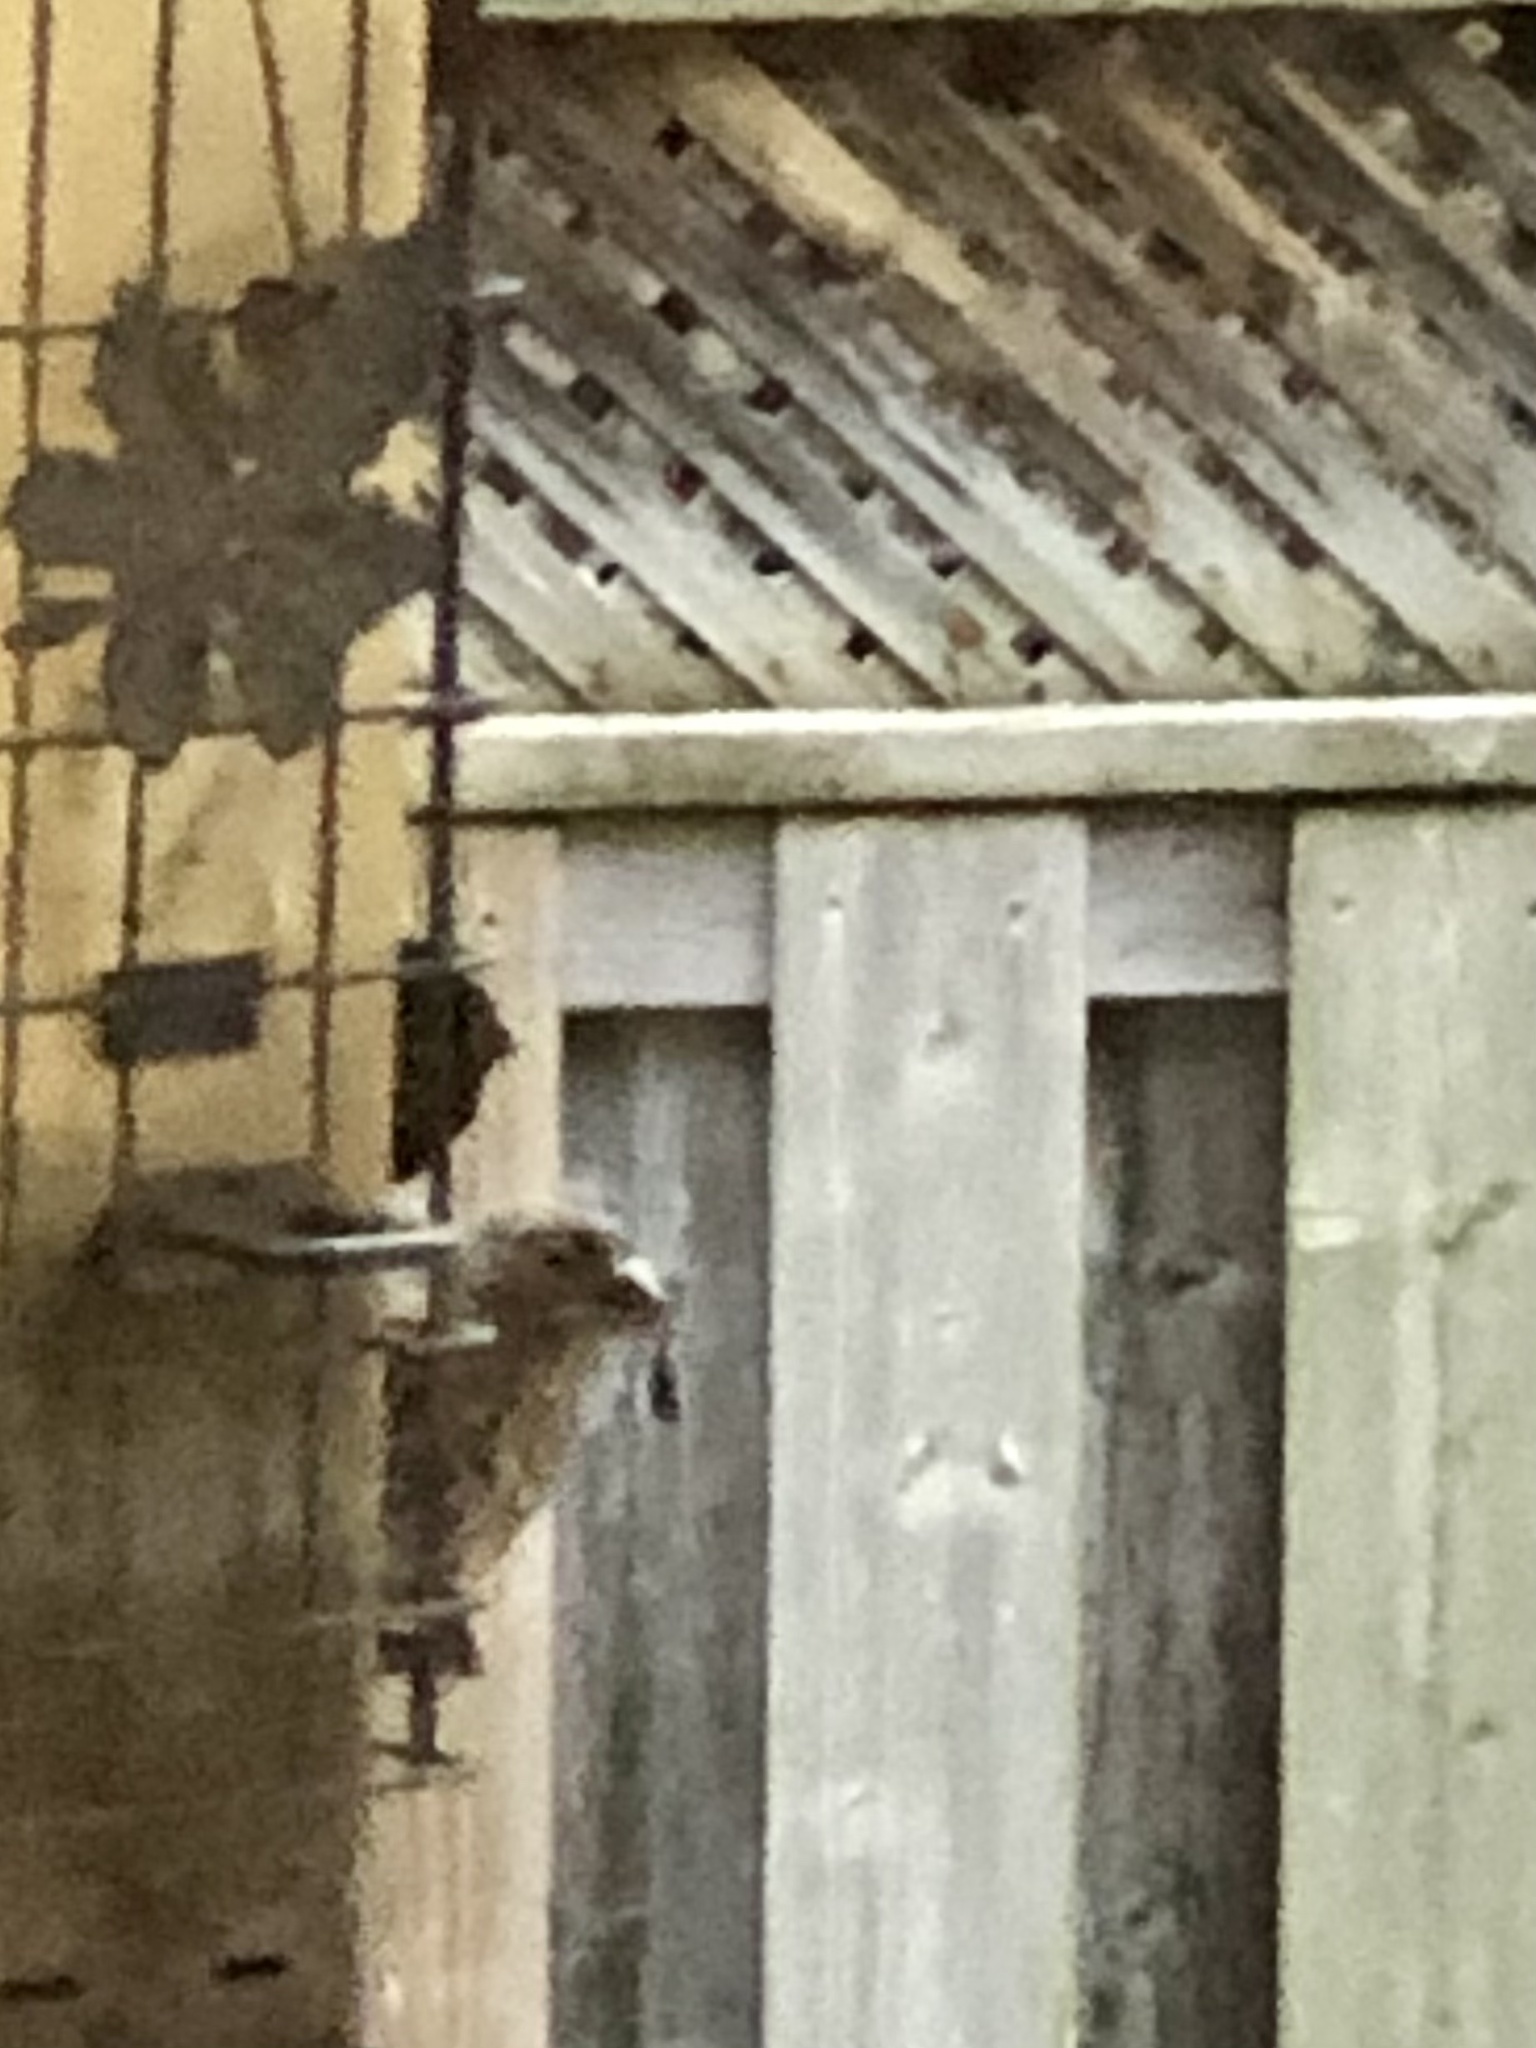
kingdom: Animalia
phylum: Chordata
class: Aves
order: Passeriformes
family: Fringillidae
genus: Haemorhous
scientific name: Haemorhous mexicanus
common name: House finch
